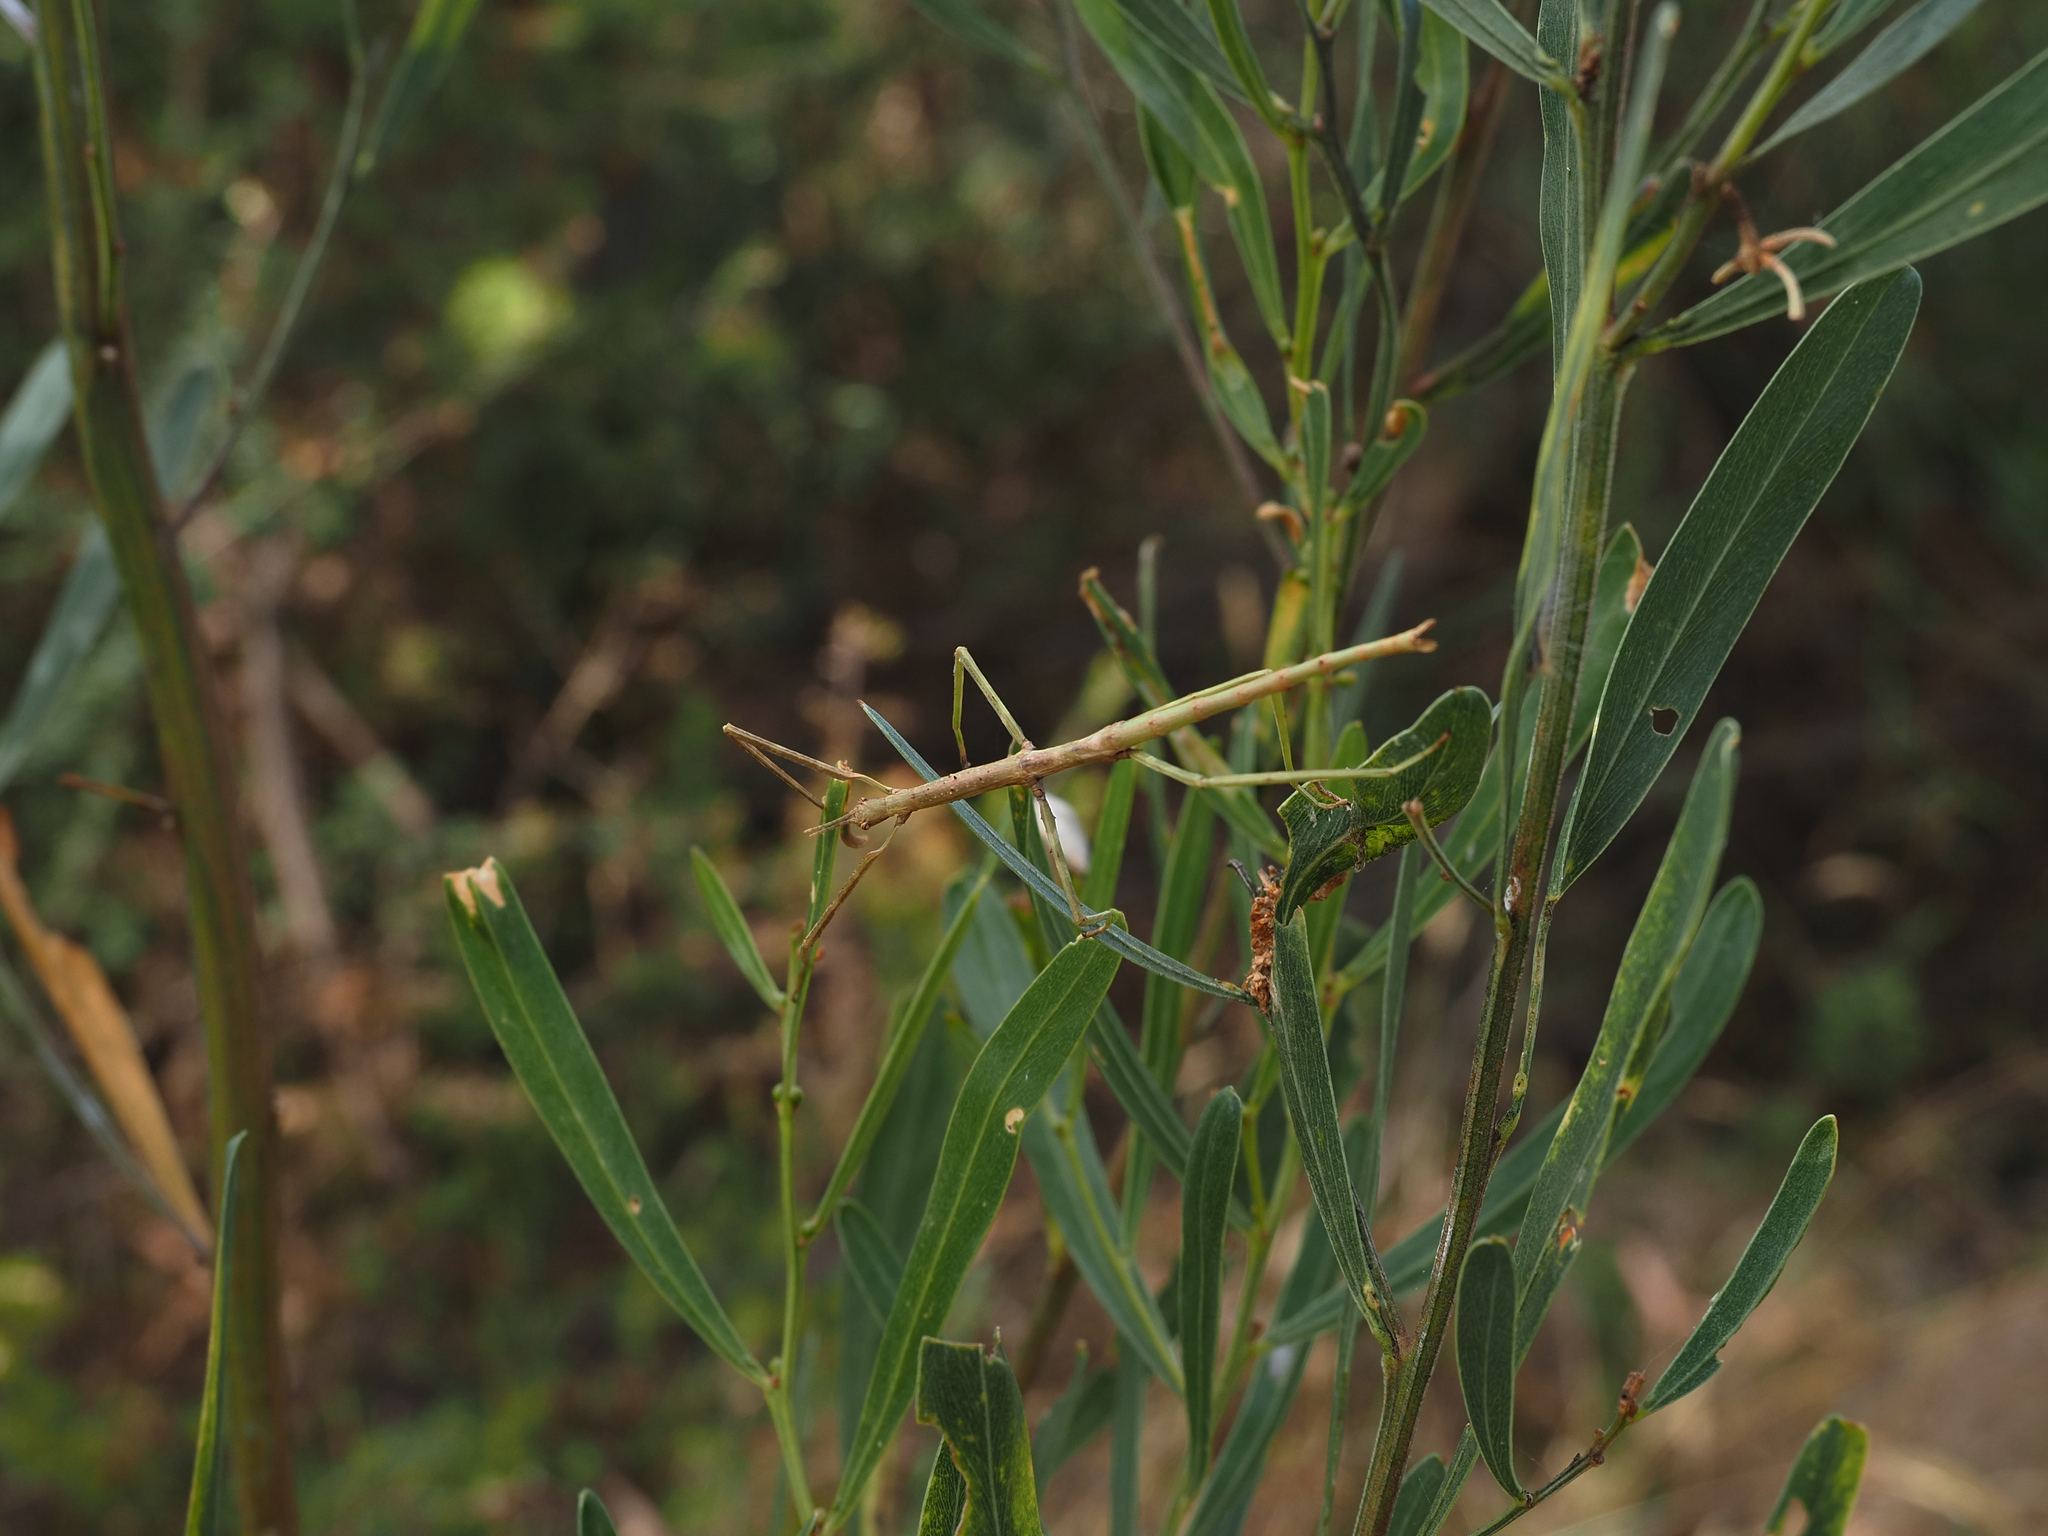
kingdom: Animalia
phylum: Arthropoda
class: Insecta
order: Phasmida
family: Phasmatidae
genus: Ctenomorpha
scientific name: Ctenomorpha marginipennis
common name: Margined-winged stick-insect
